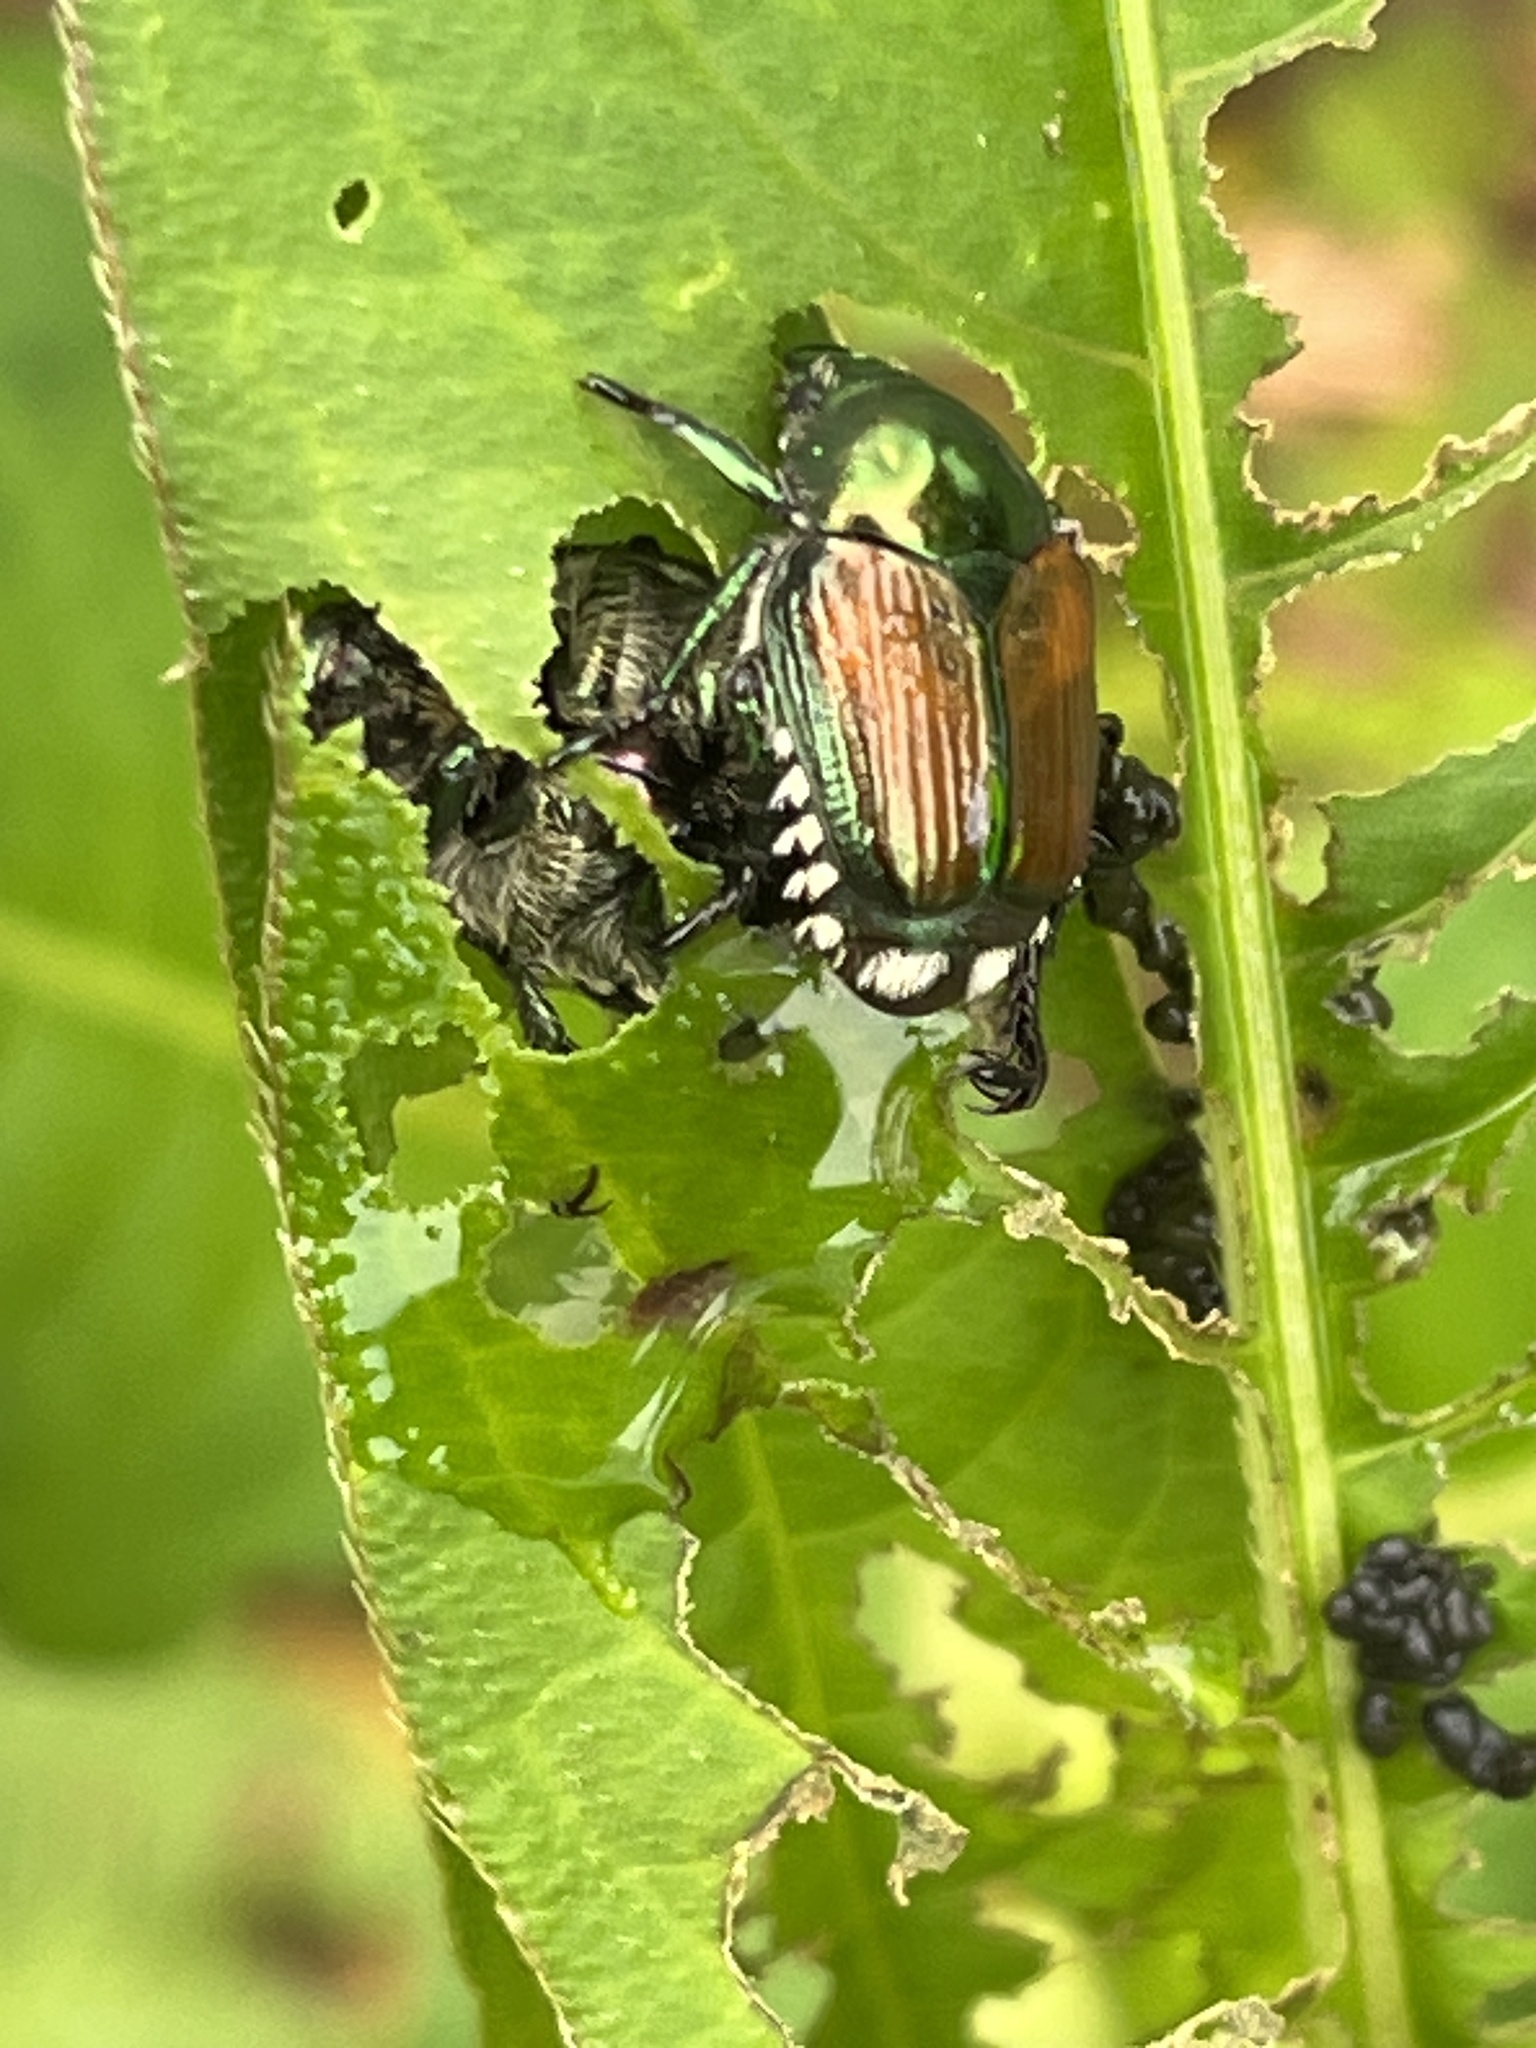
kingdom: Animalia
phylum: Arthropoda
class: Insecta
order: Coleoptera
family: Scarabaeidae
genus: Popillia
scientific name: Popillia japonica
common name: Japanese beetle
